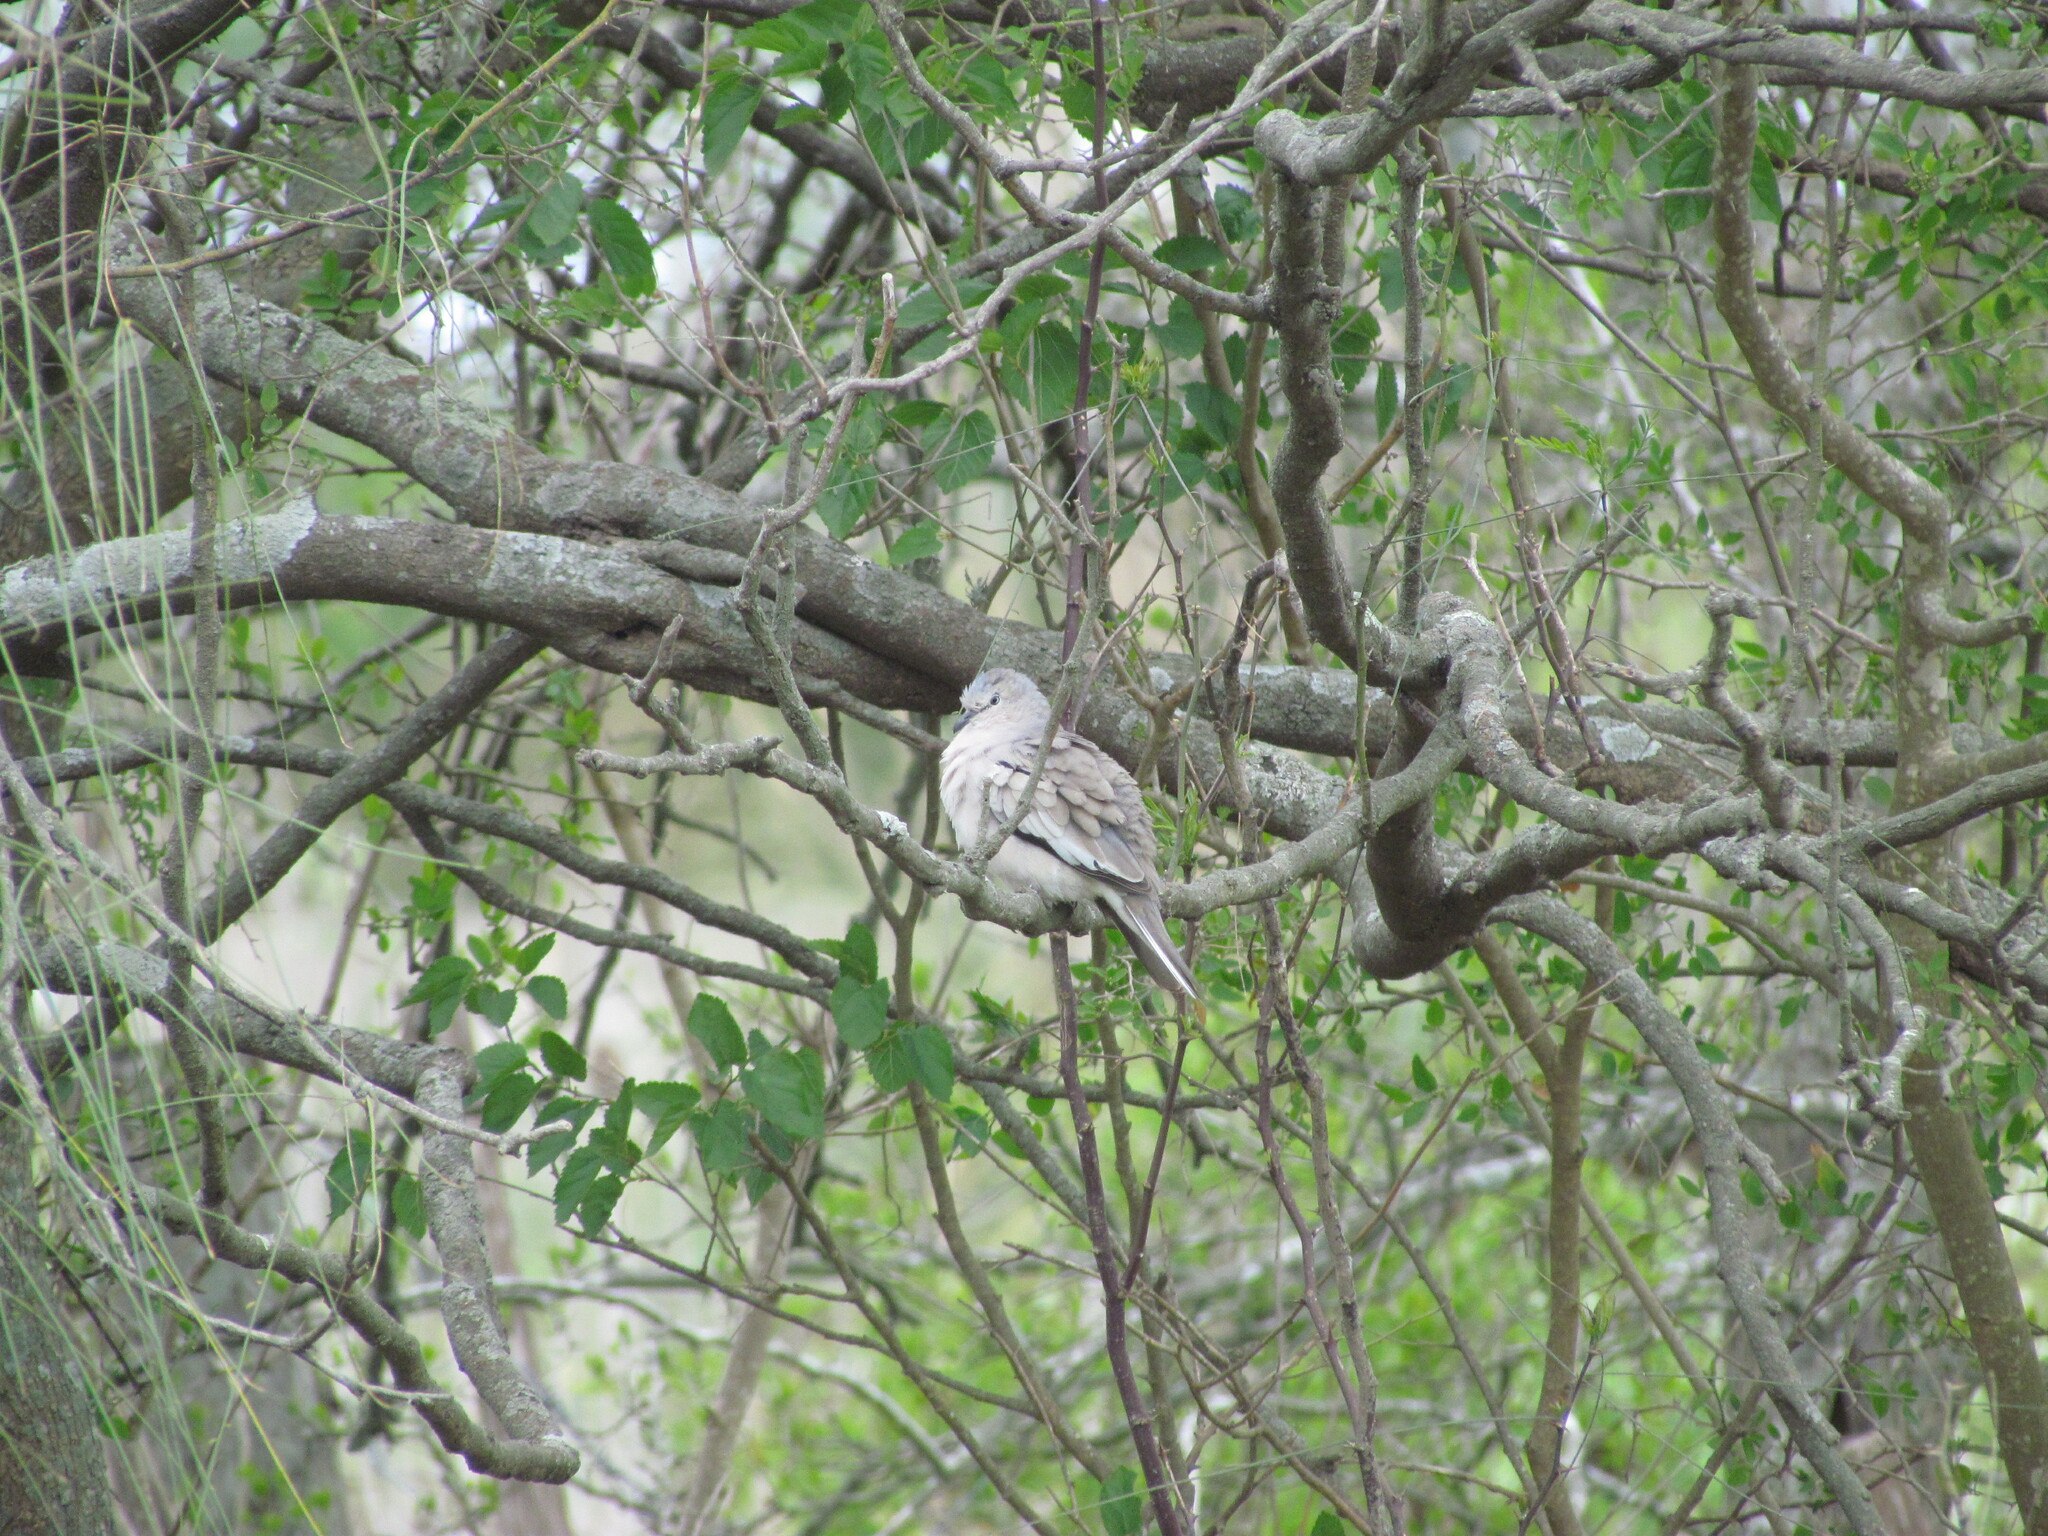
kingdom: Animalia
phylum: Chordata
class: Aves
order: Columbiformes
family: Columbidae
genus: Columbina
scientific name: Columbina picui
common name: Picui ground dove
